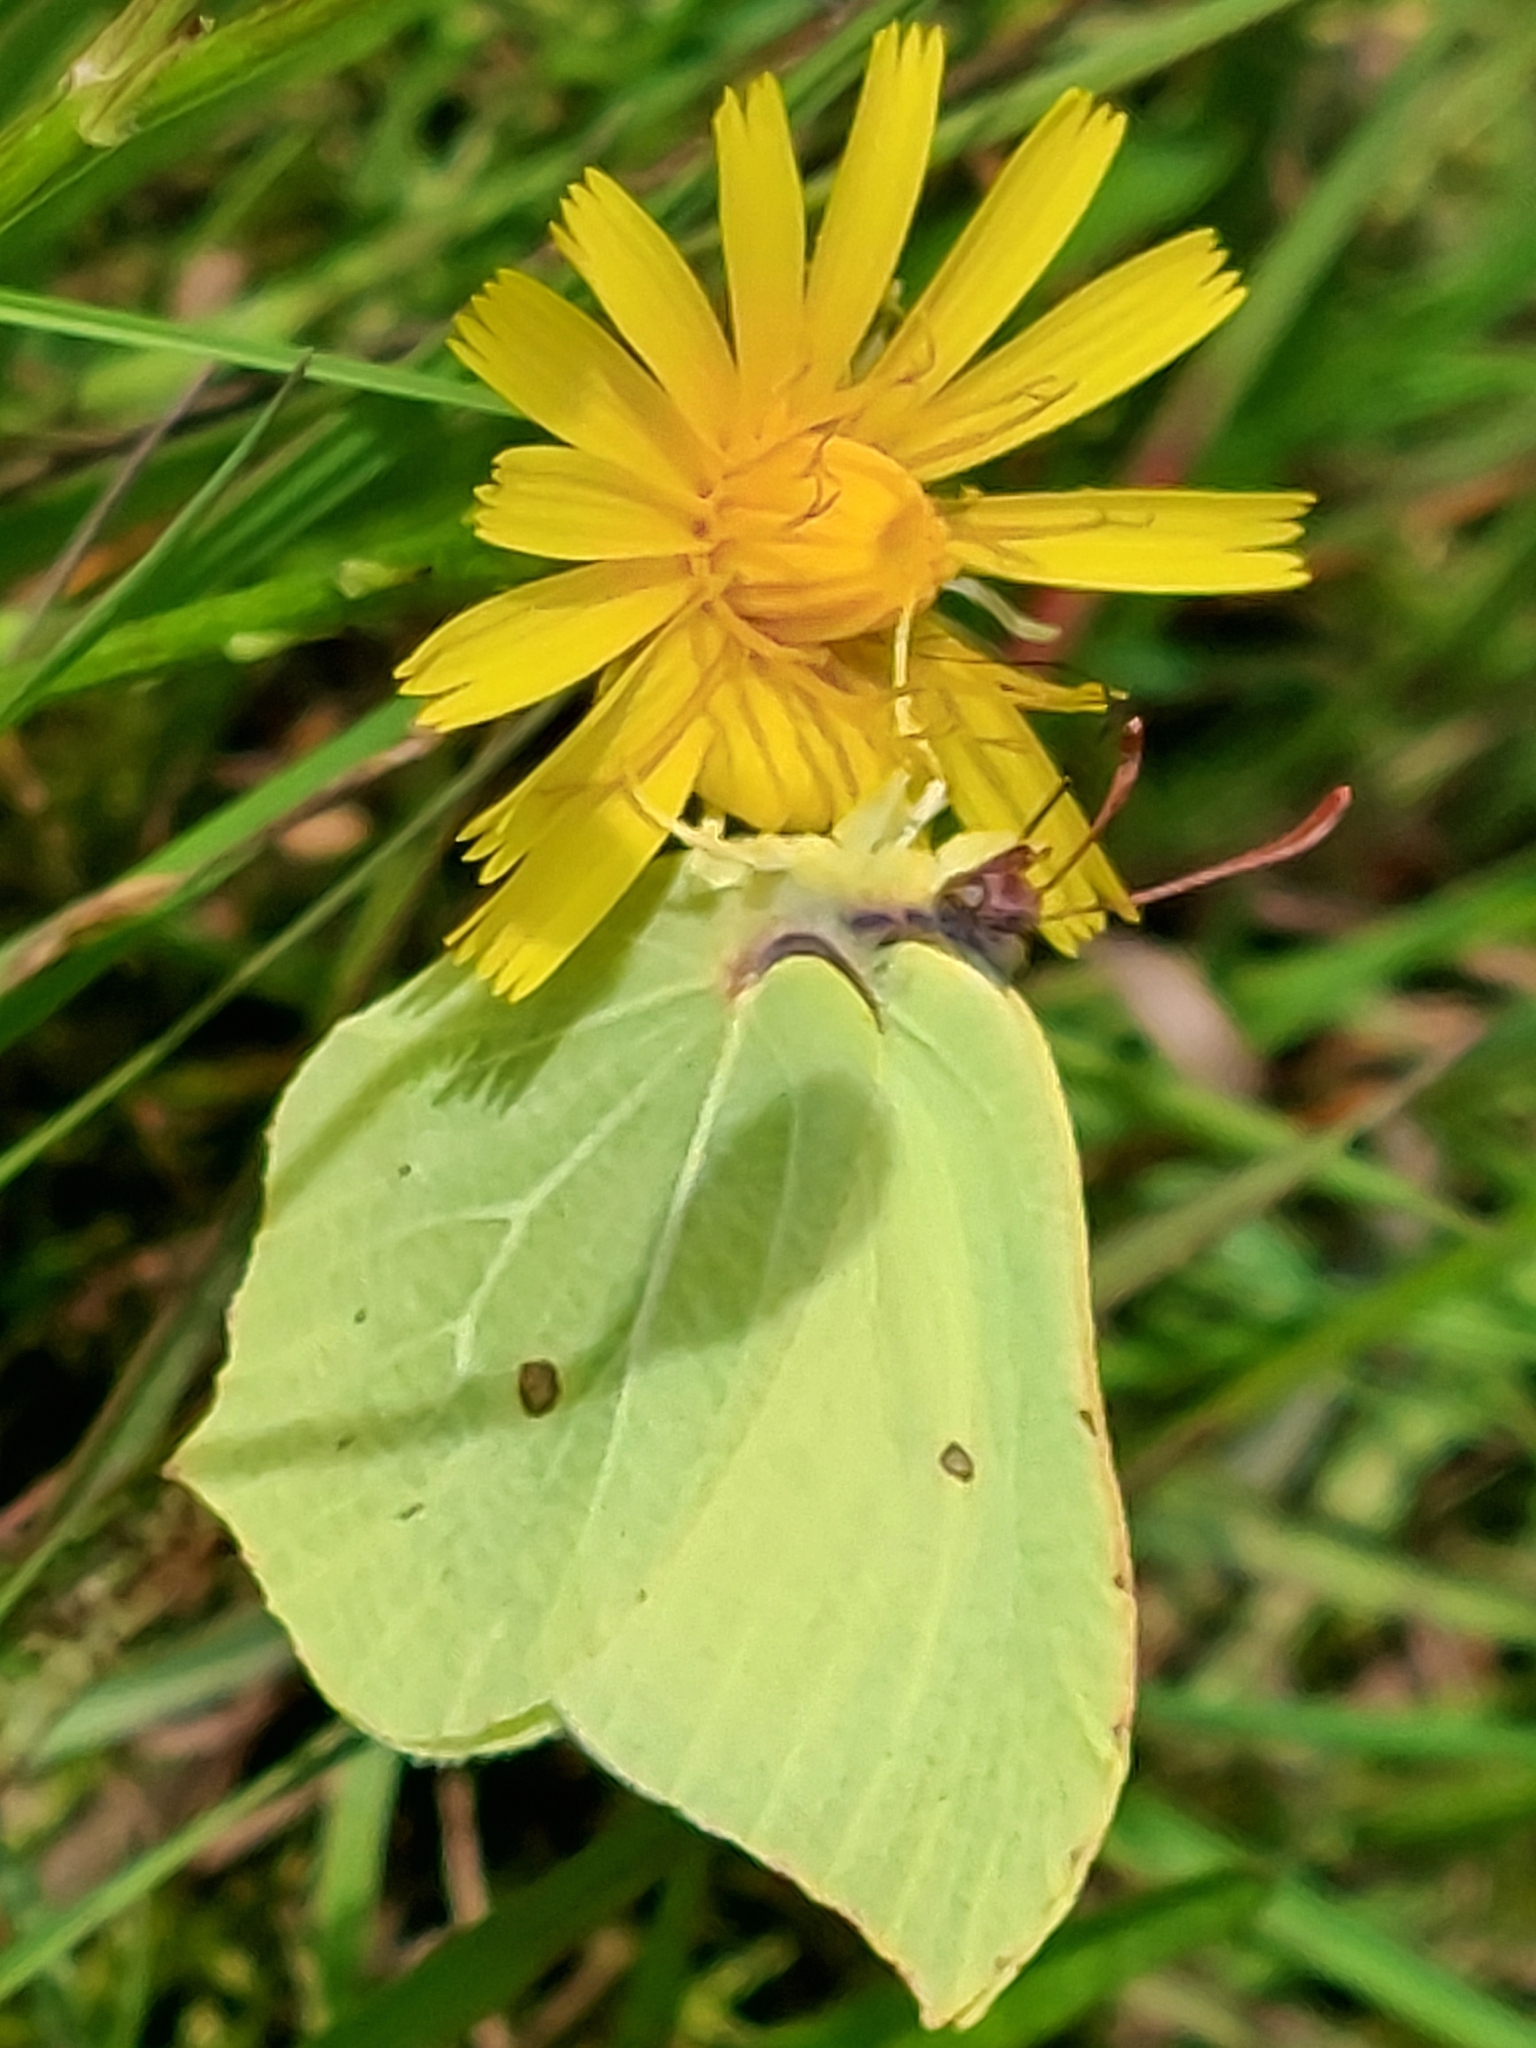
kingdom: Animalia
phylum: Arthropoda
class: Insecta
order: Lepidoptera
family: Pieridae
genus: Gonepteryx
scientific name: Gonepteryx rhamni
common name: Brimstone
